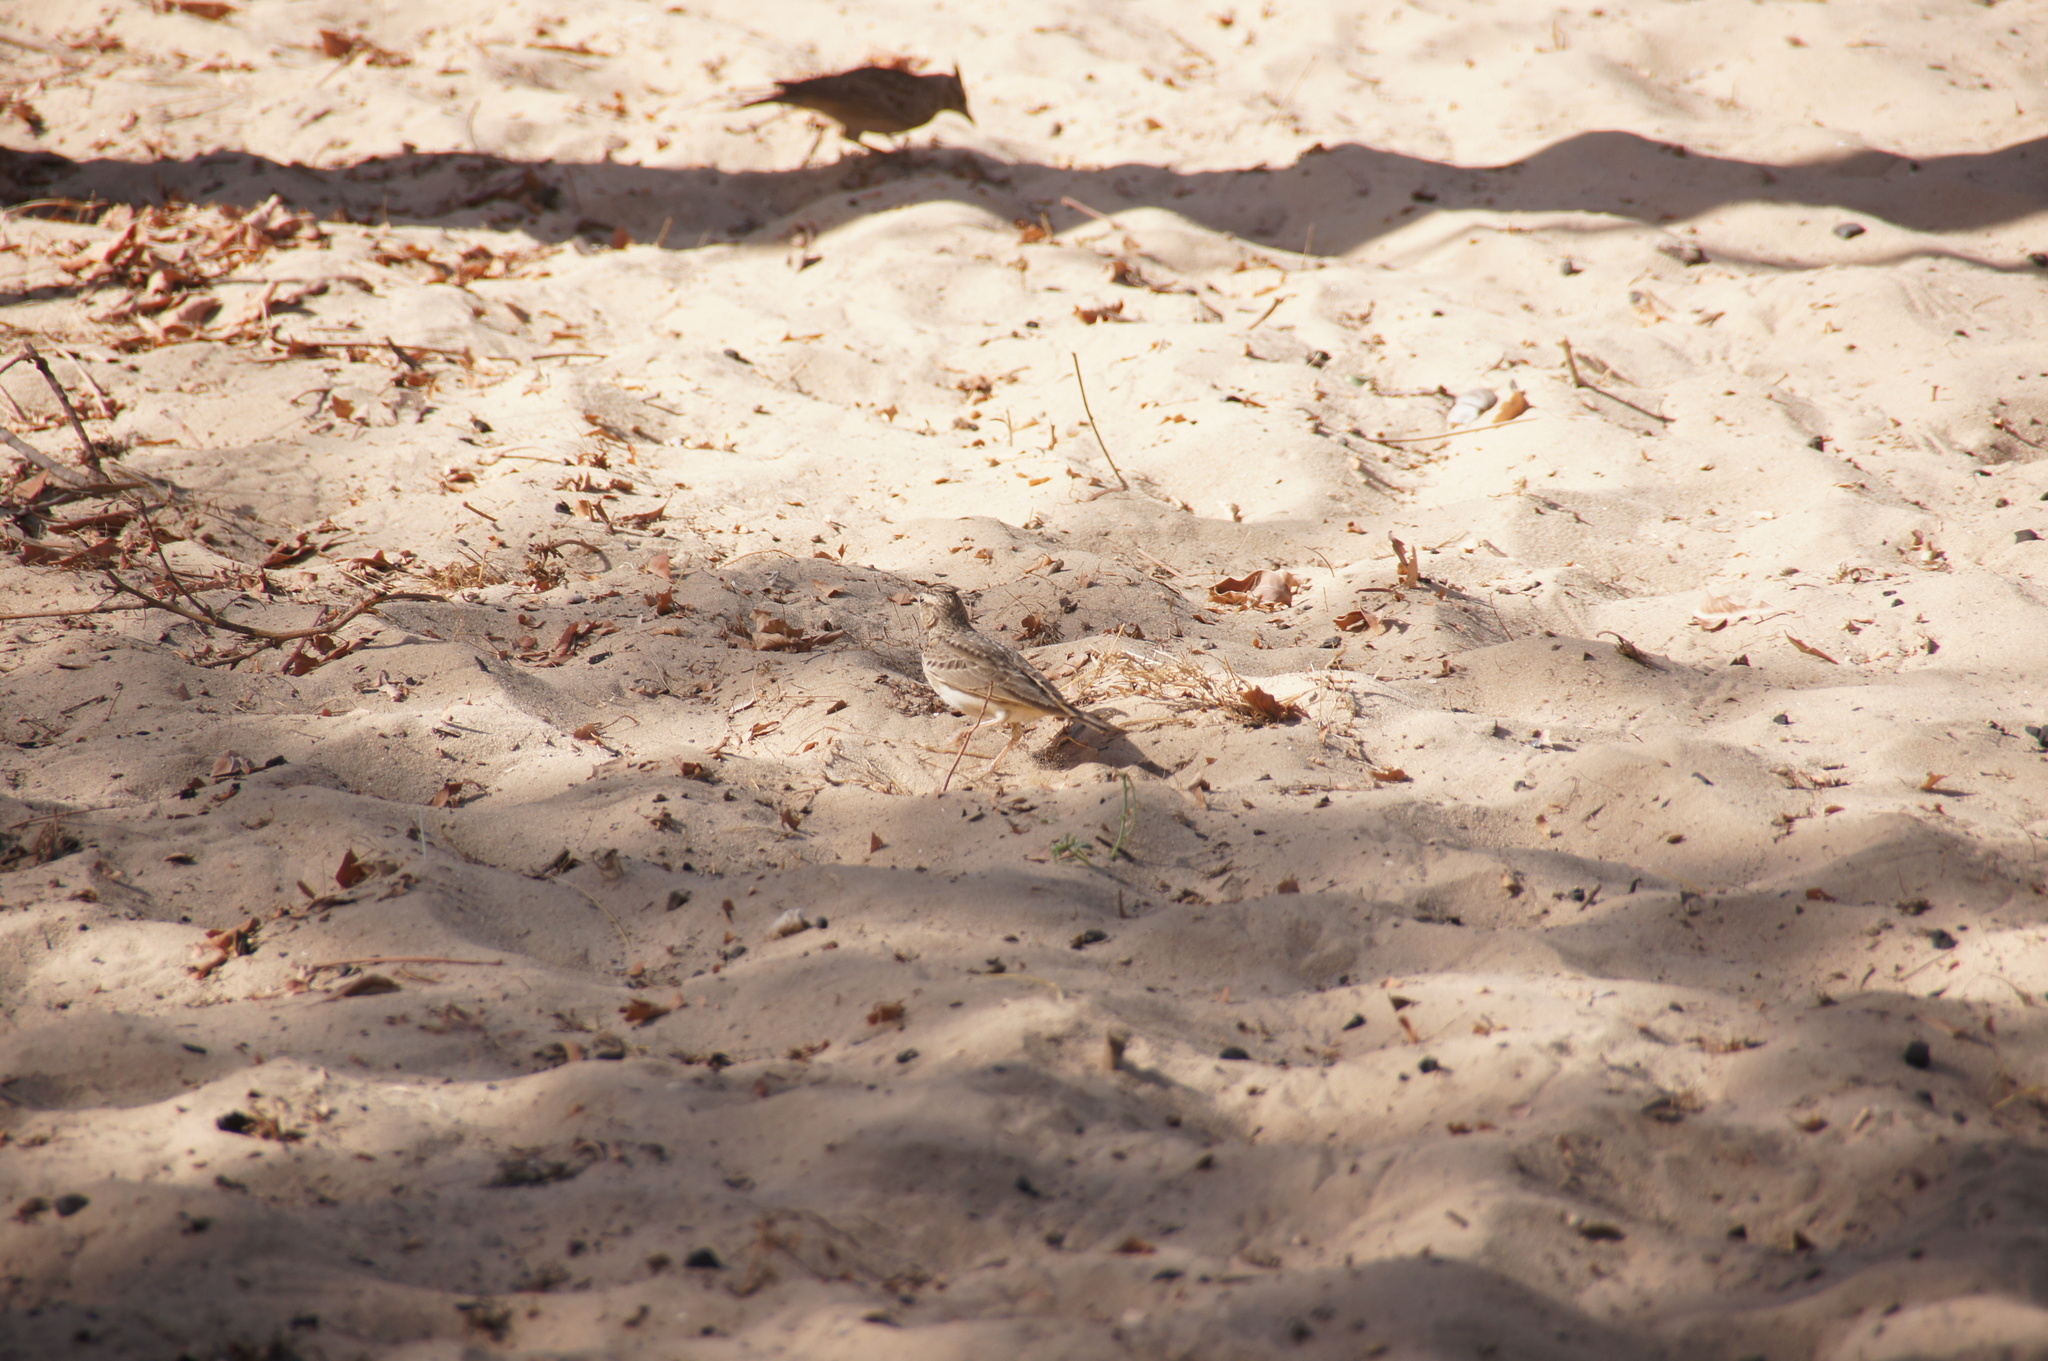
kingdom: Animalia
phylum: Chordata
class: Aves
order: Passeriformes
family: Alaudidae
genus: Galerida
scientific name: Galerida cristata
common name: Crested lark
